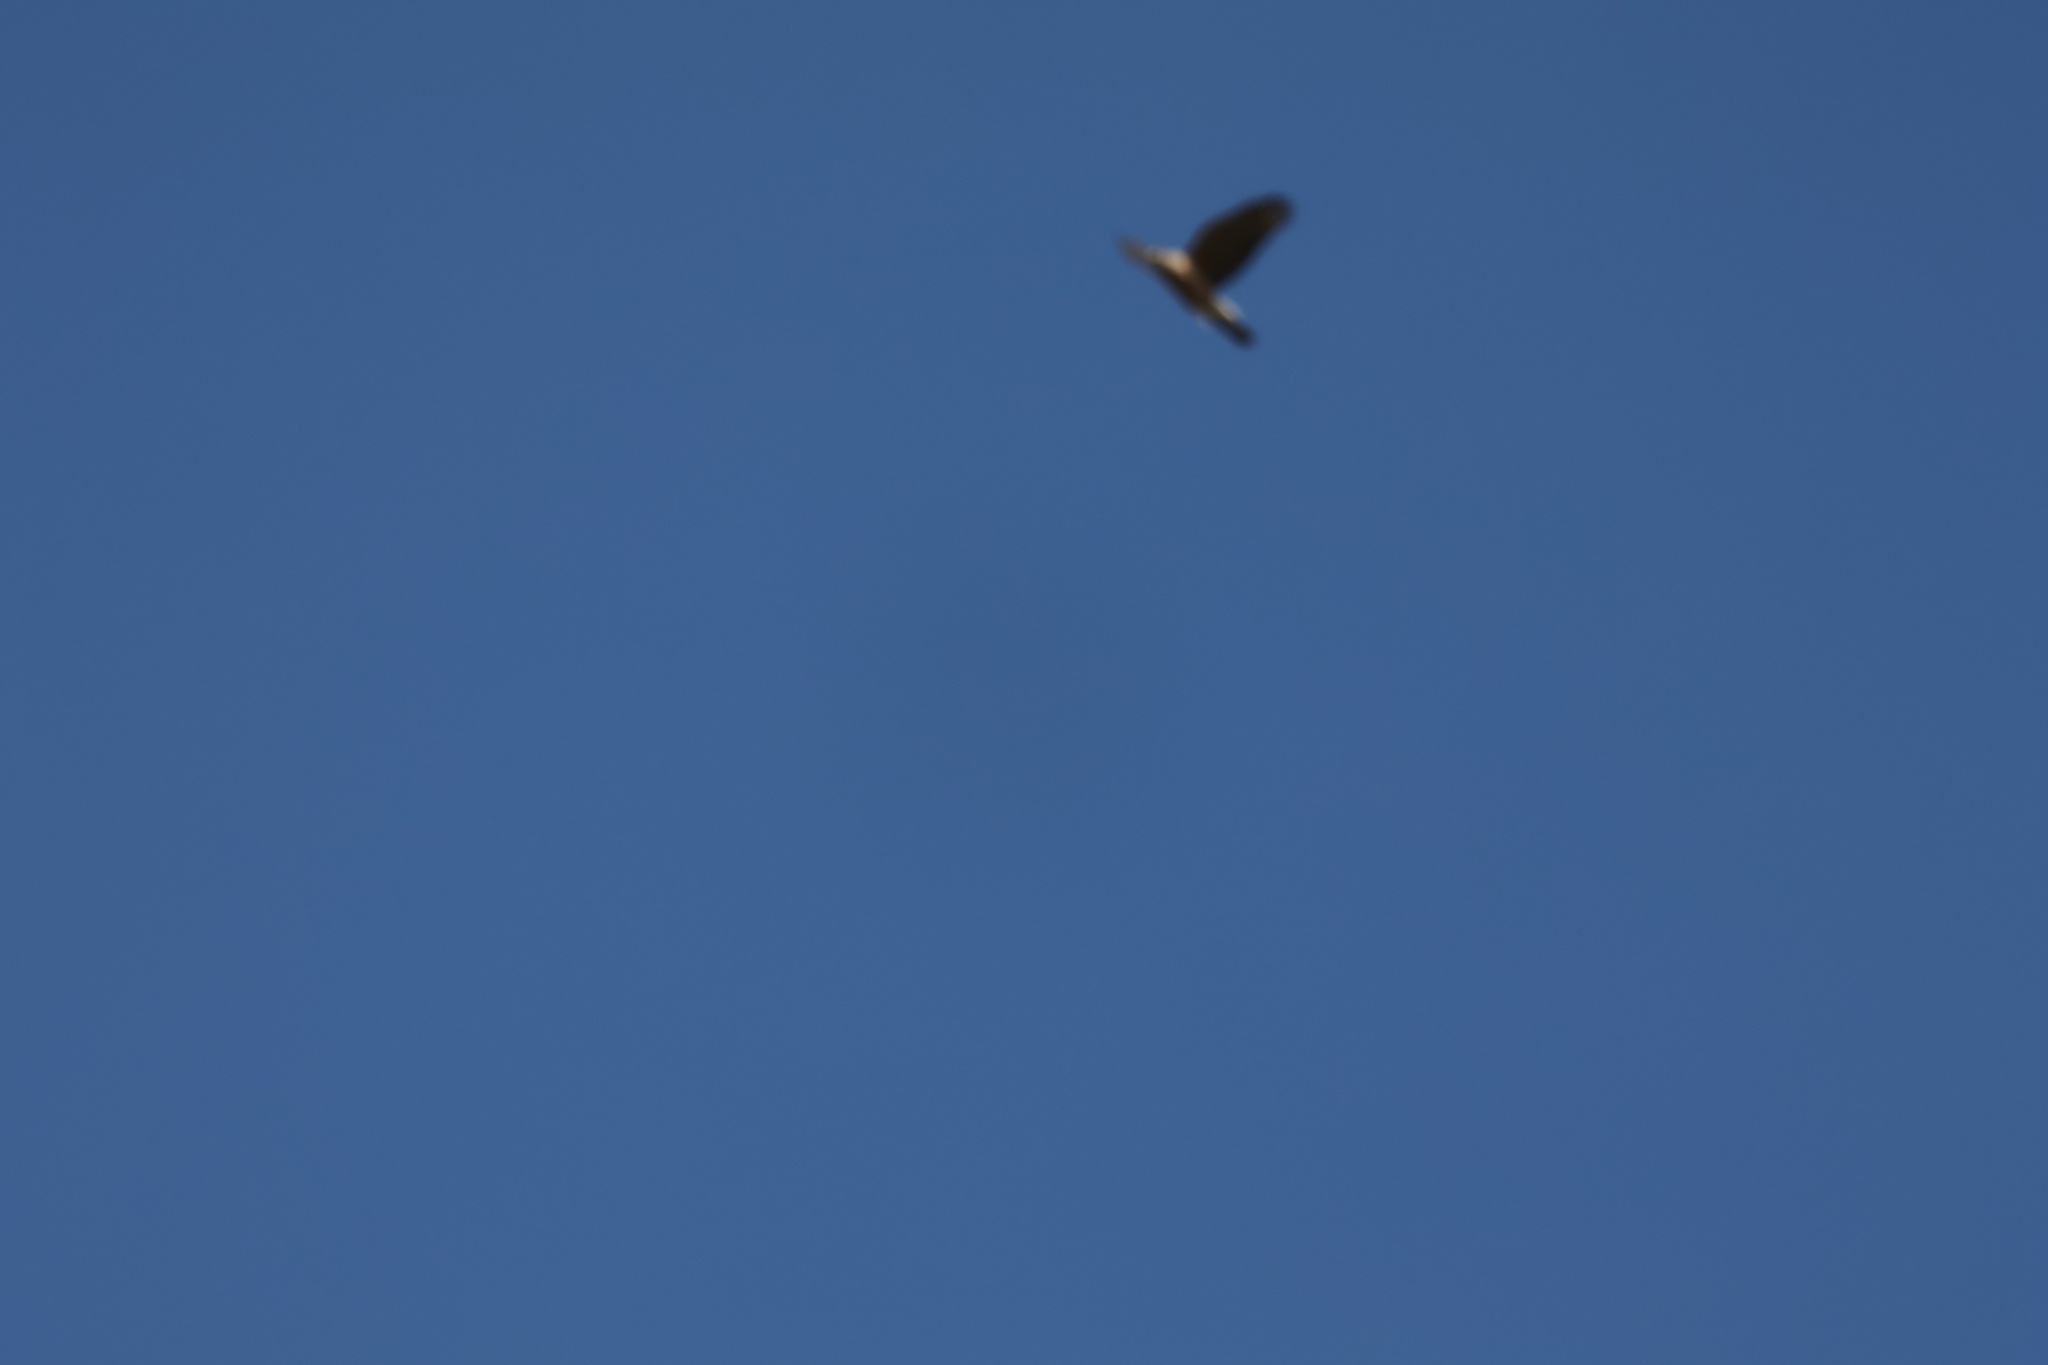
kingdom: Animalia
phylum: Chordata
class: Aves
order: Accipitriformes
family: Accipitridae
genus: Accipiter
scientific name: Accipiter cooperii
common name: Cooper's hawk
